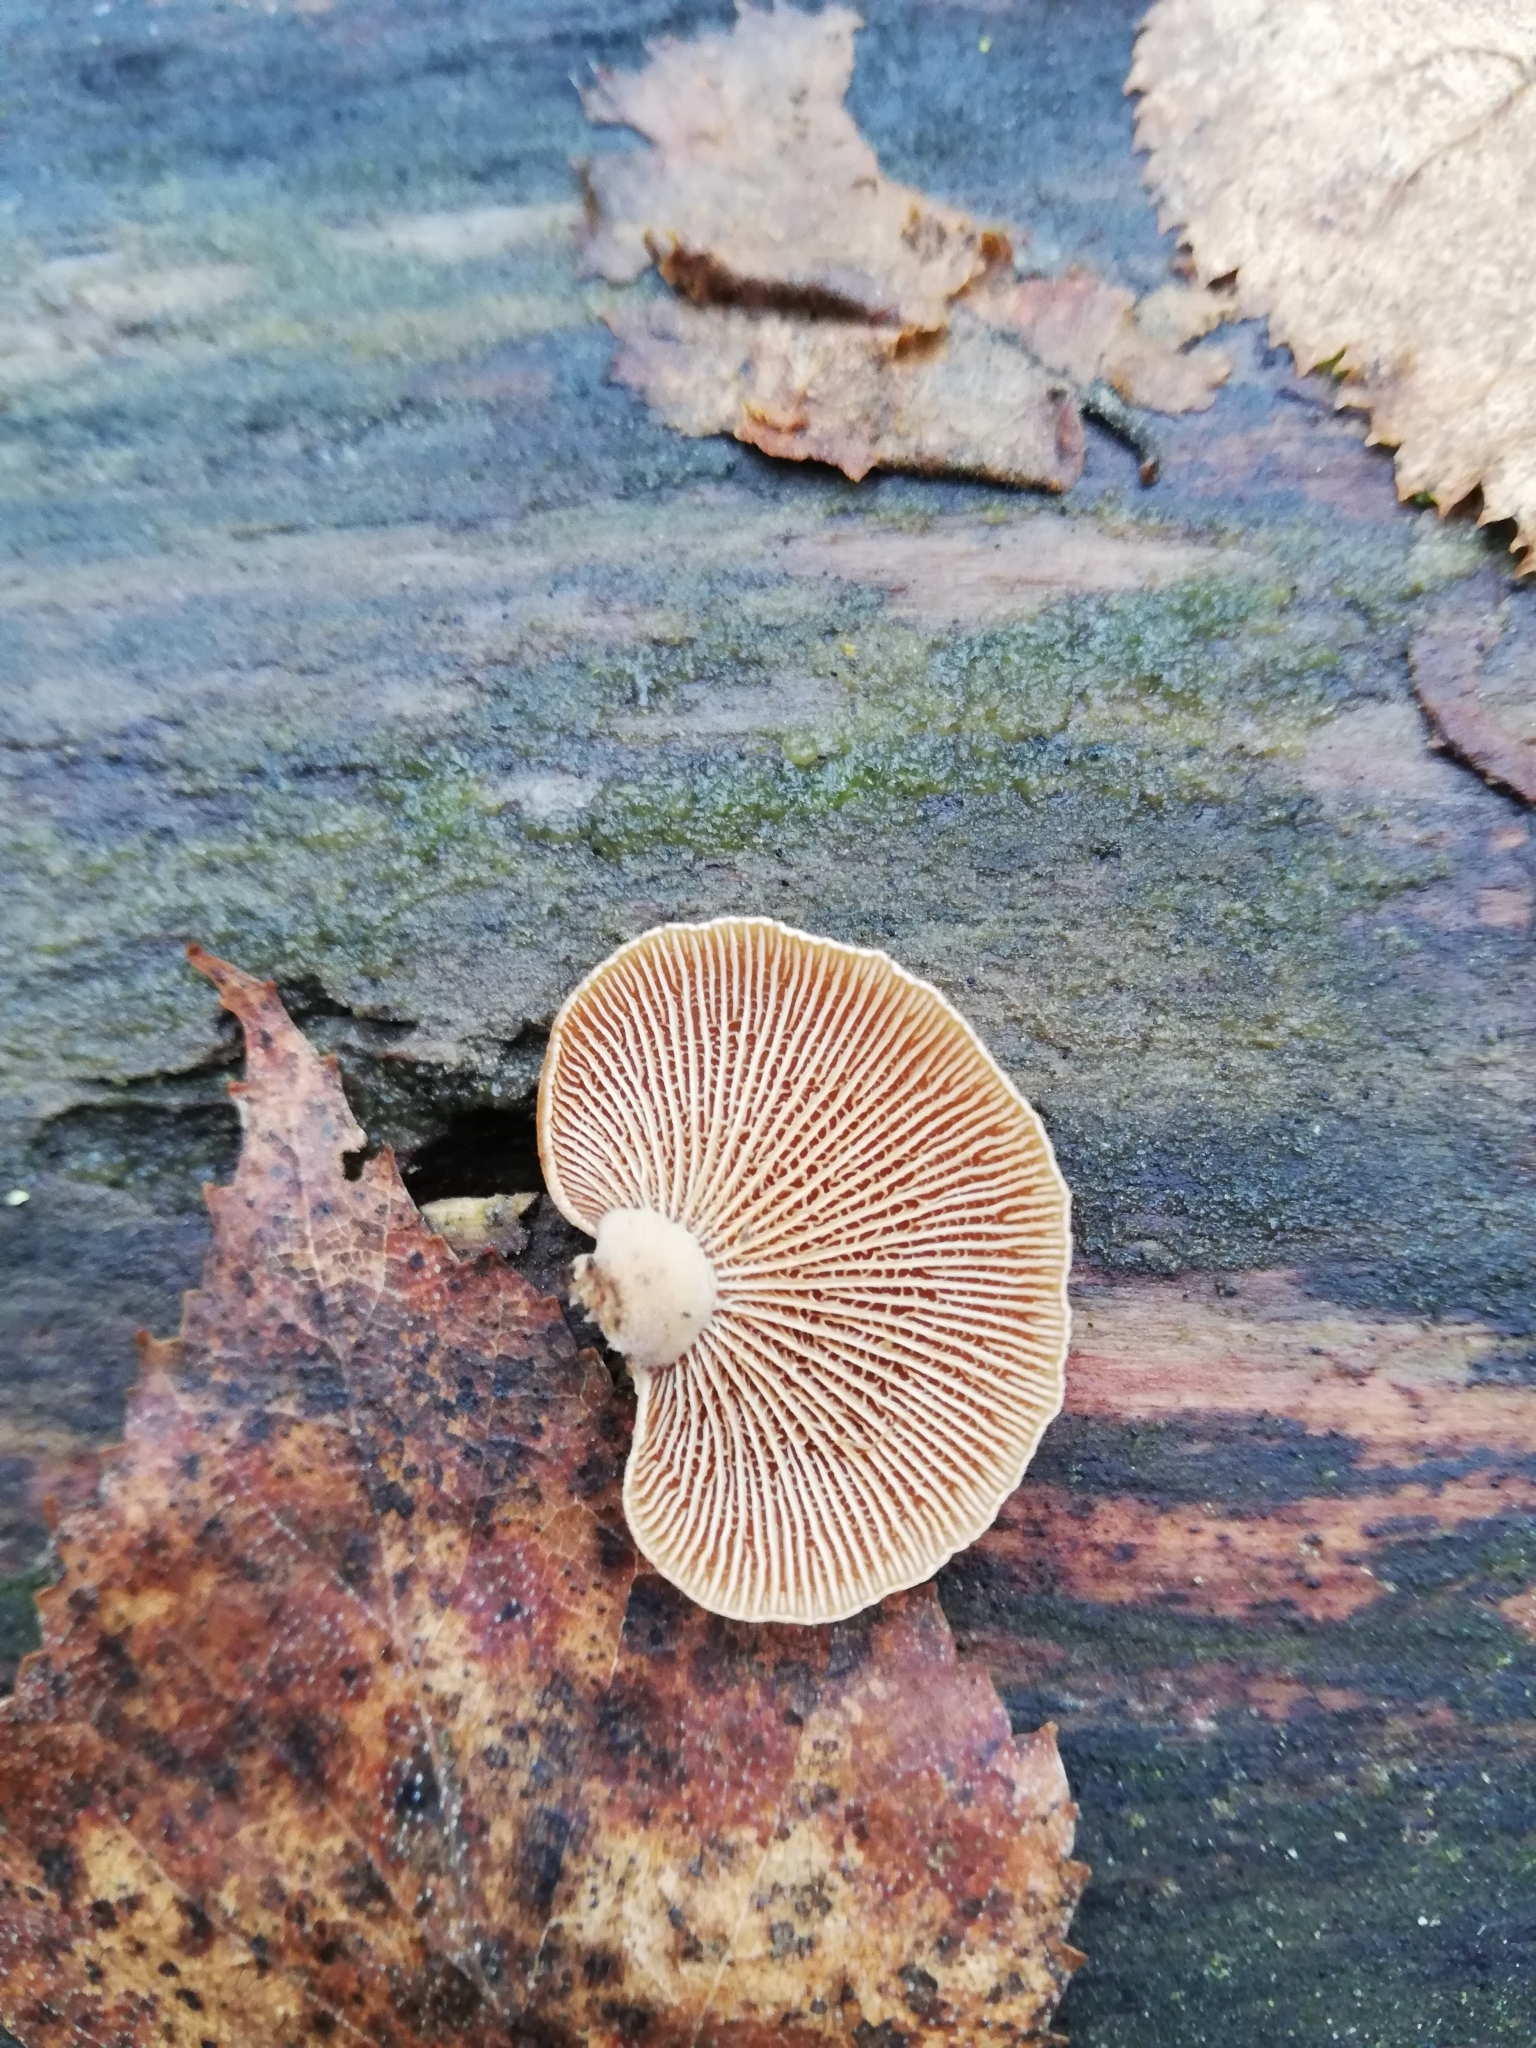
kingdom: Fungi
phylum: Basidiomycota
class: Agaricomycetes
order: Agaricales
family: Mycenaceae
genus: Panellus
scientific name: Panellus stipticus
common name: Bitter oysterling
